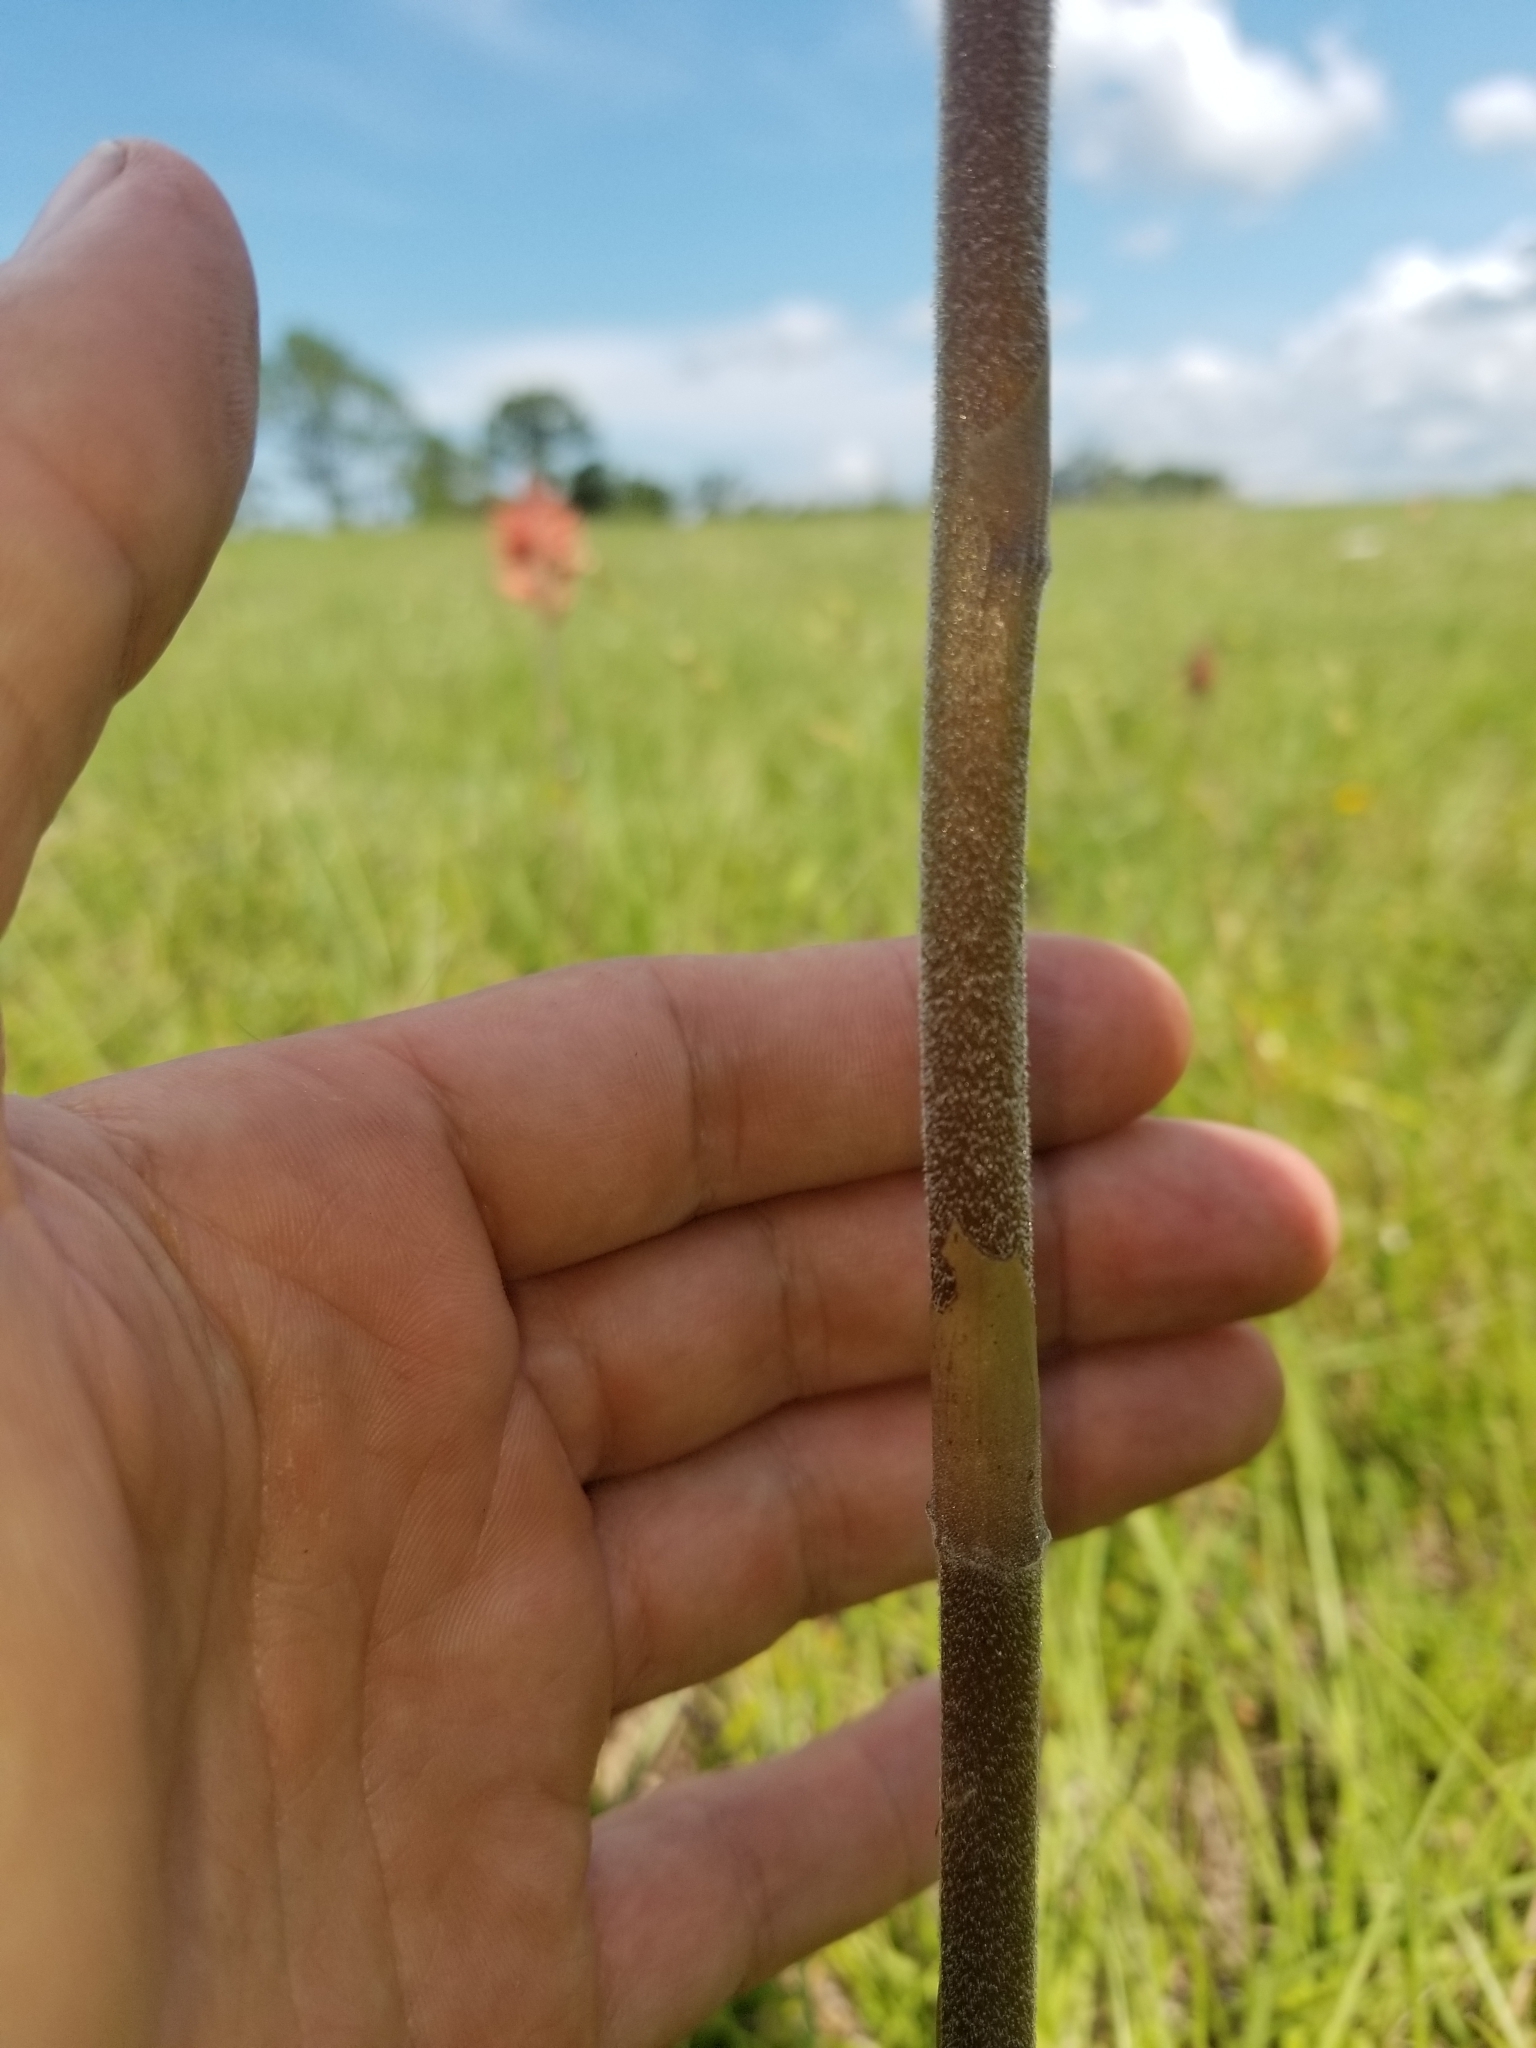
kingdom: Plantae
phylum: Tracheophyta
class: Liliopsida
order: Asparagales
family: Orchidaceae
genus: Sacoila
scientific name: Sacoila lanceolata
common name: Leafless beaked ladiestresses
